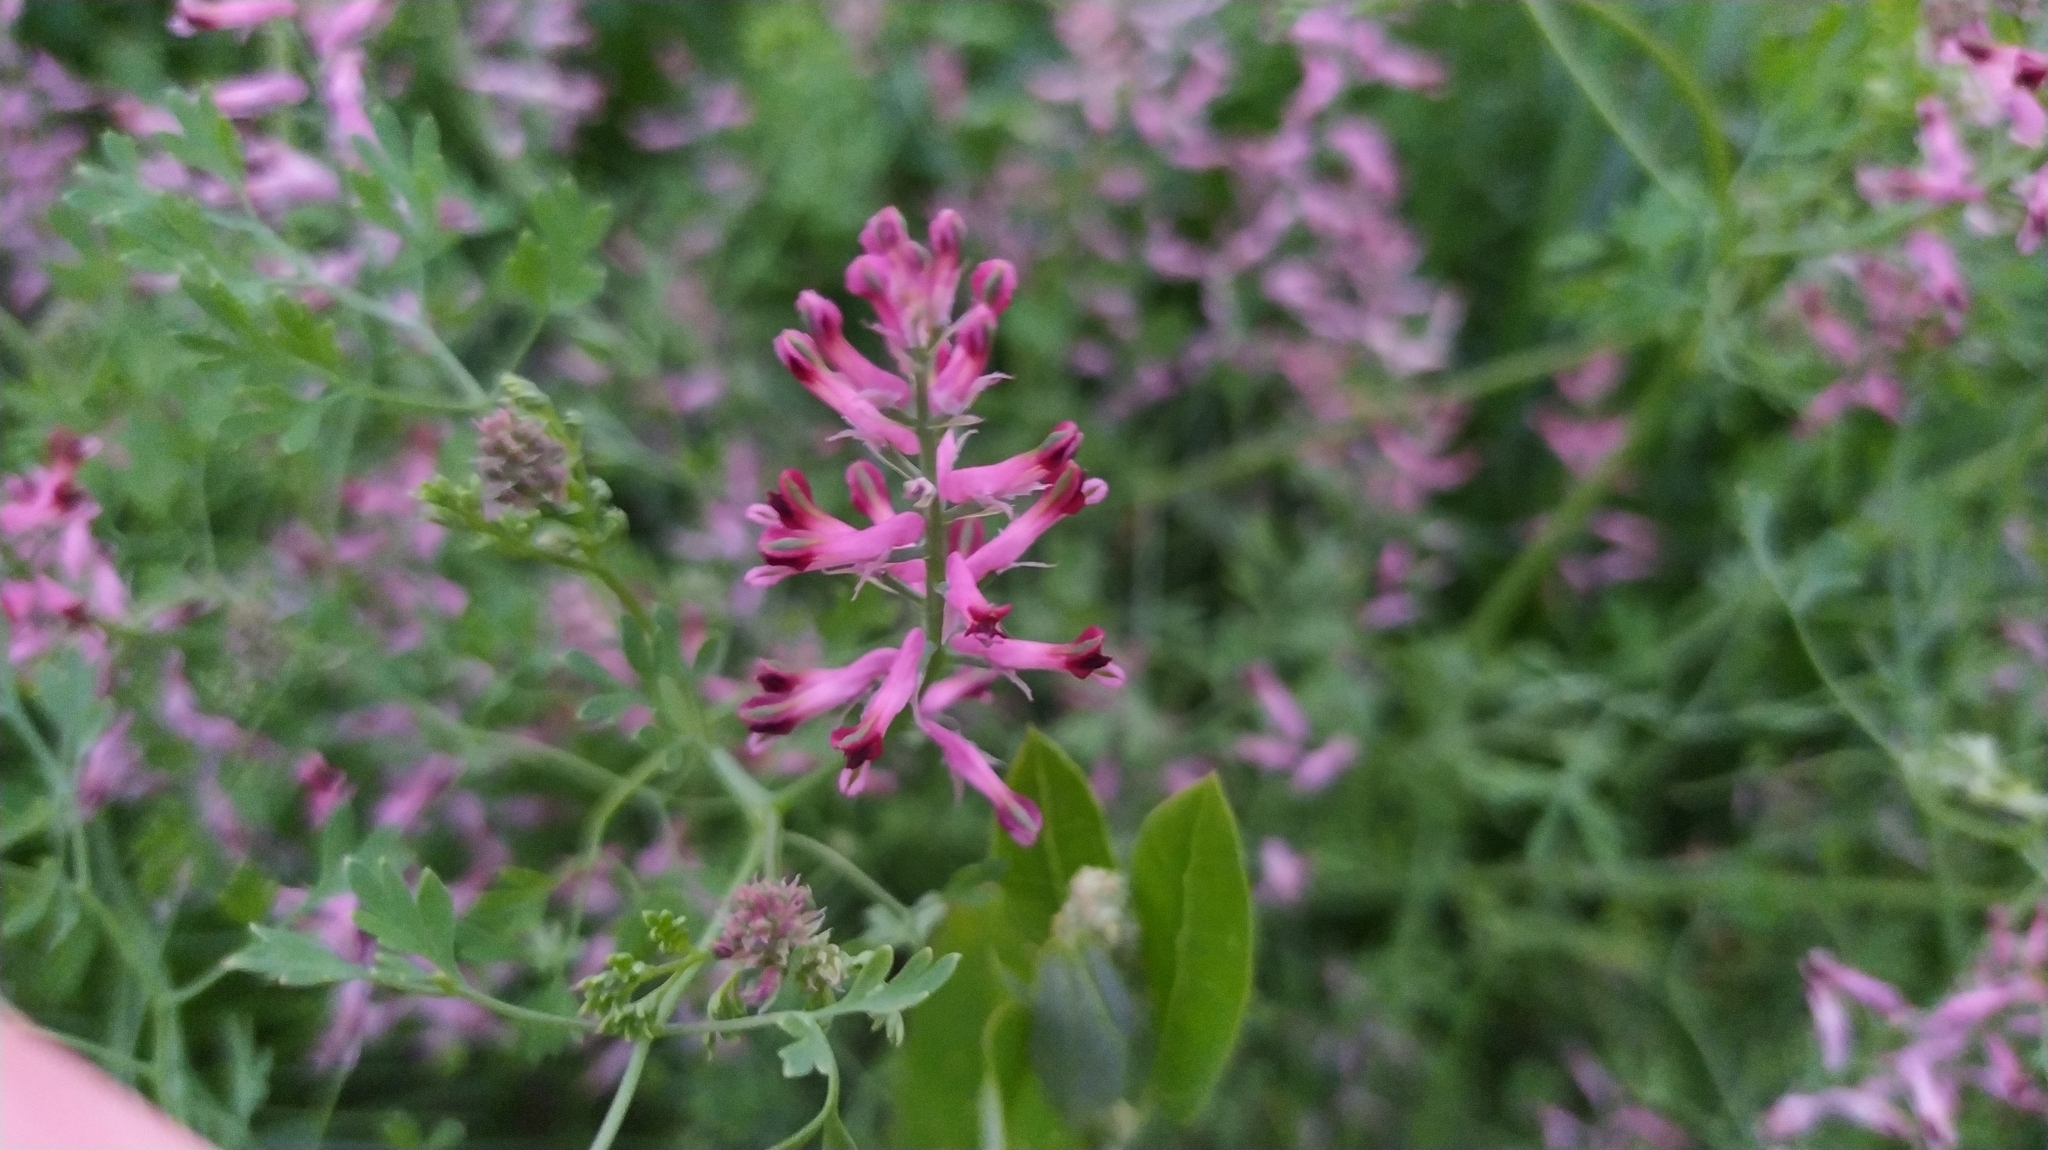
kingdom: Plantae
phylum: Tracheophyta
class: Magnoliopsida
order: Ranunculales
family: Papaveraceae
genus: Fumaria
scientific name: Fumaria officinalis
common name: Common fumitory
